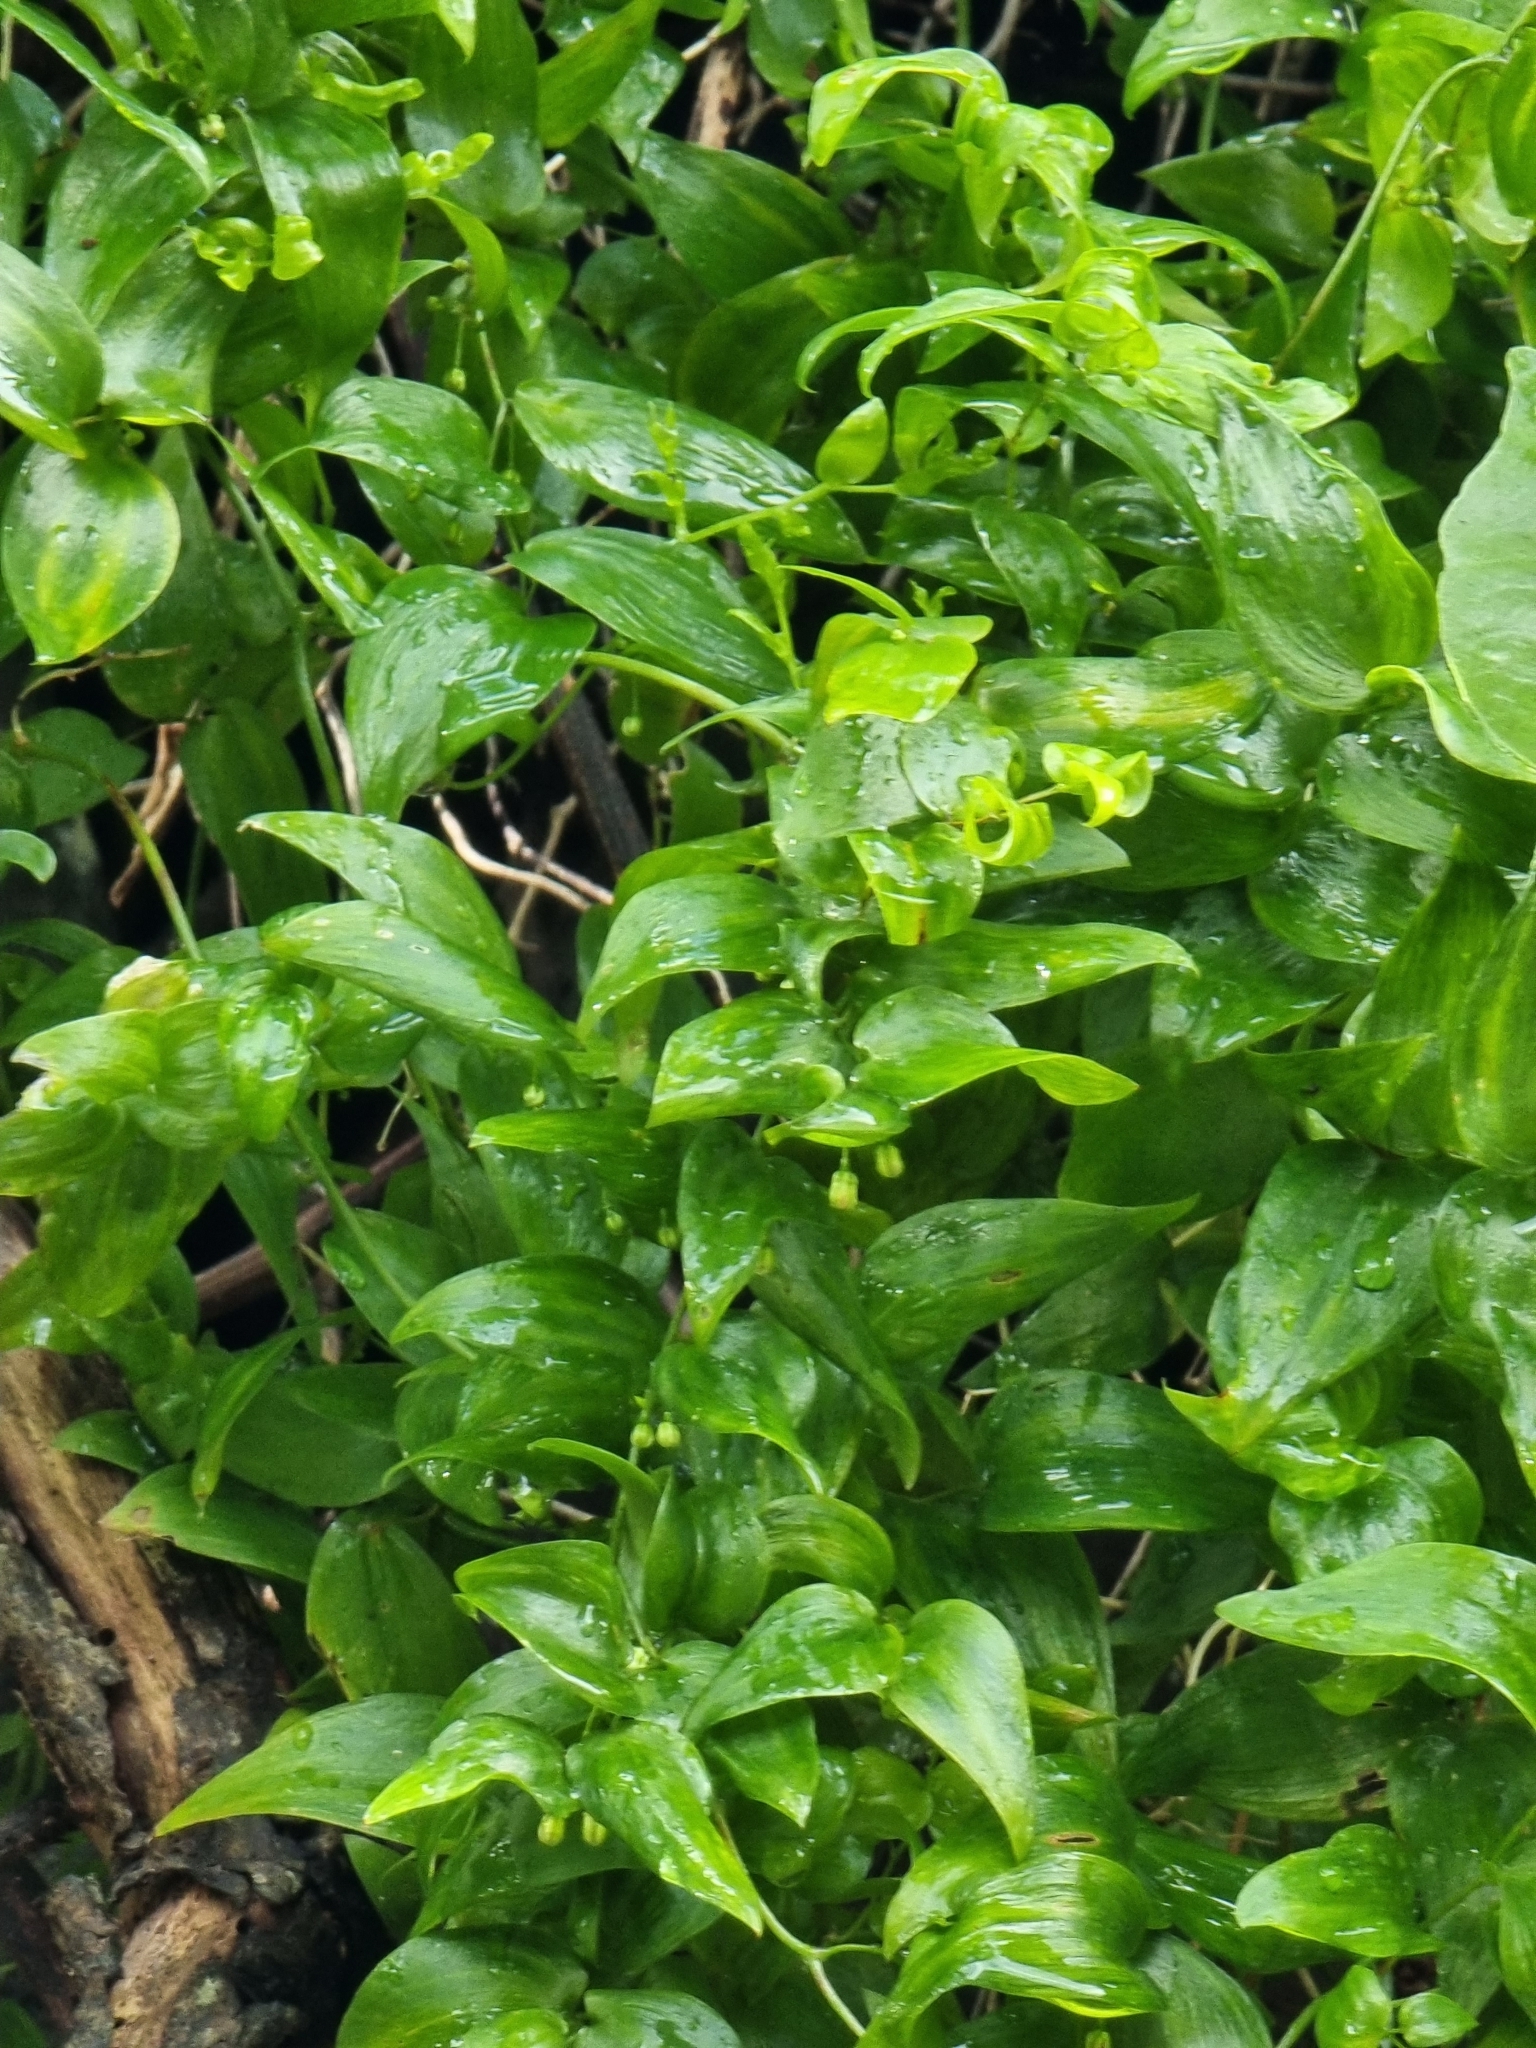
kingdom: Plantae
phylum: Tracheophyta
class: Liliopsida
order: Asparagales
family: Asparagaceae
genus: Asparagus
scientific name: Asparagus asparagoides
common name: African asparagus fern
